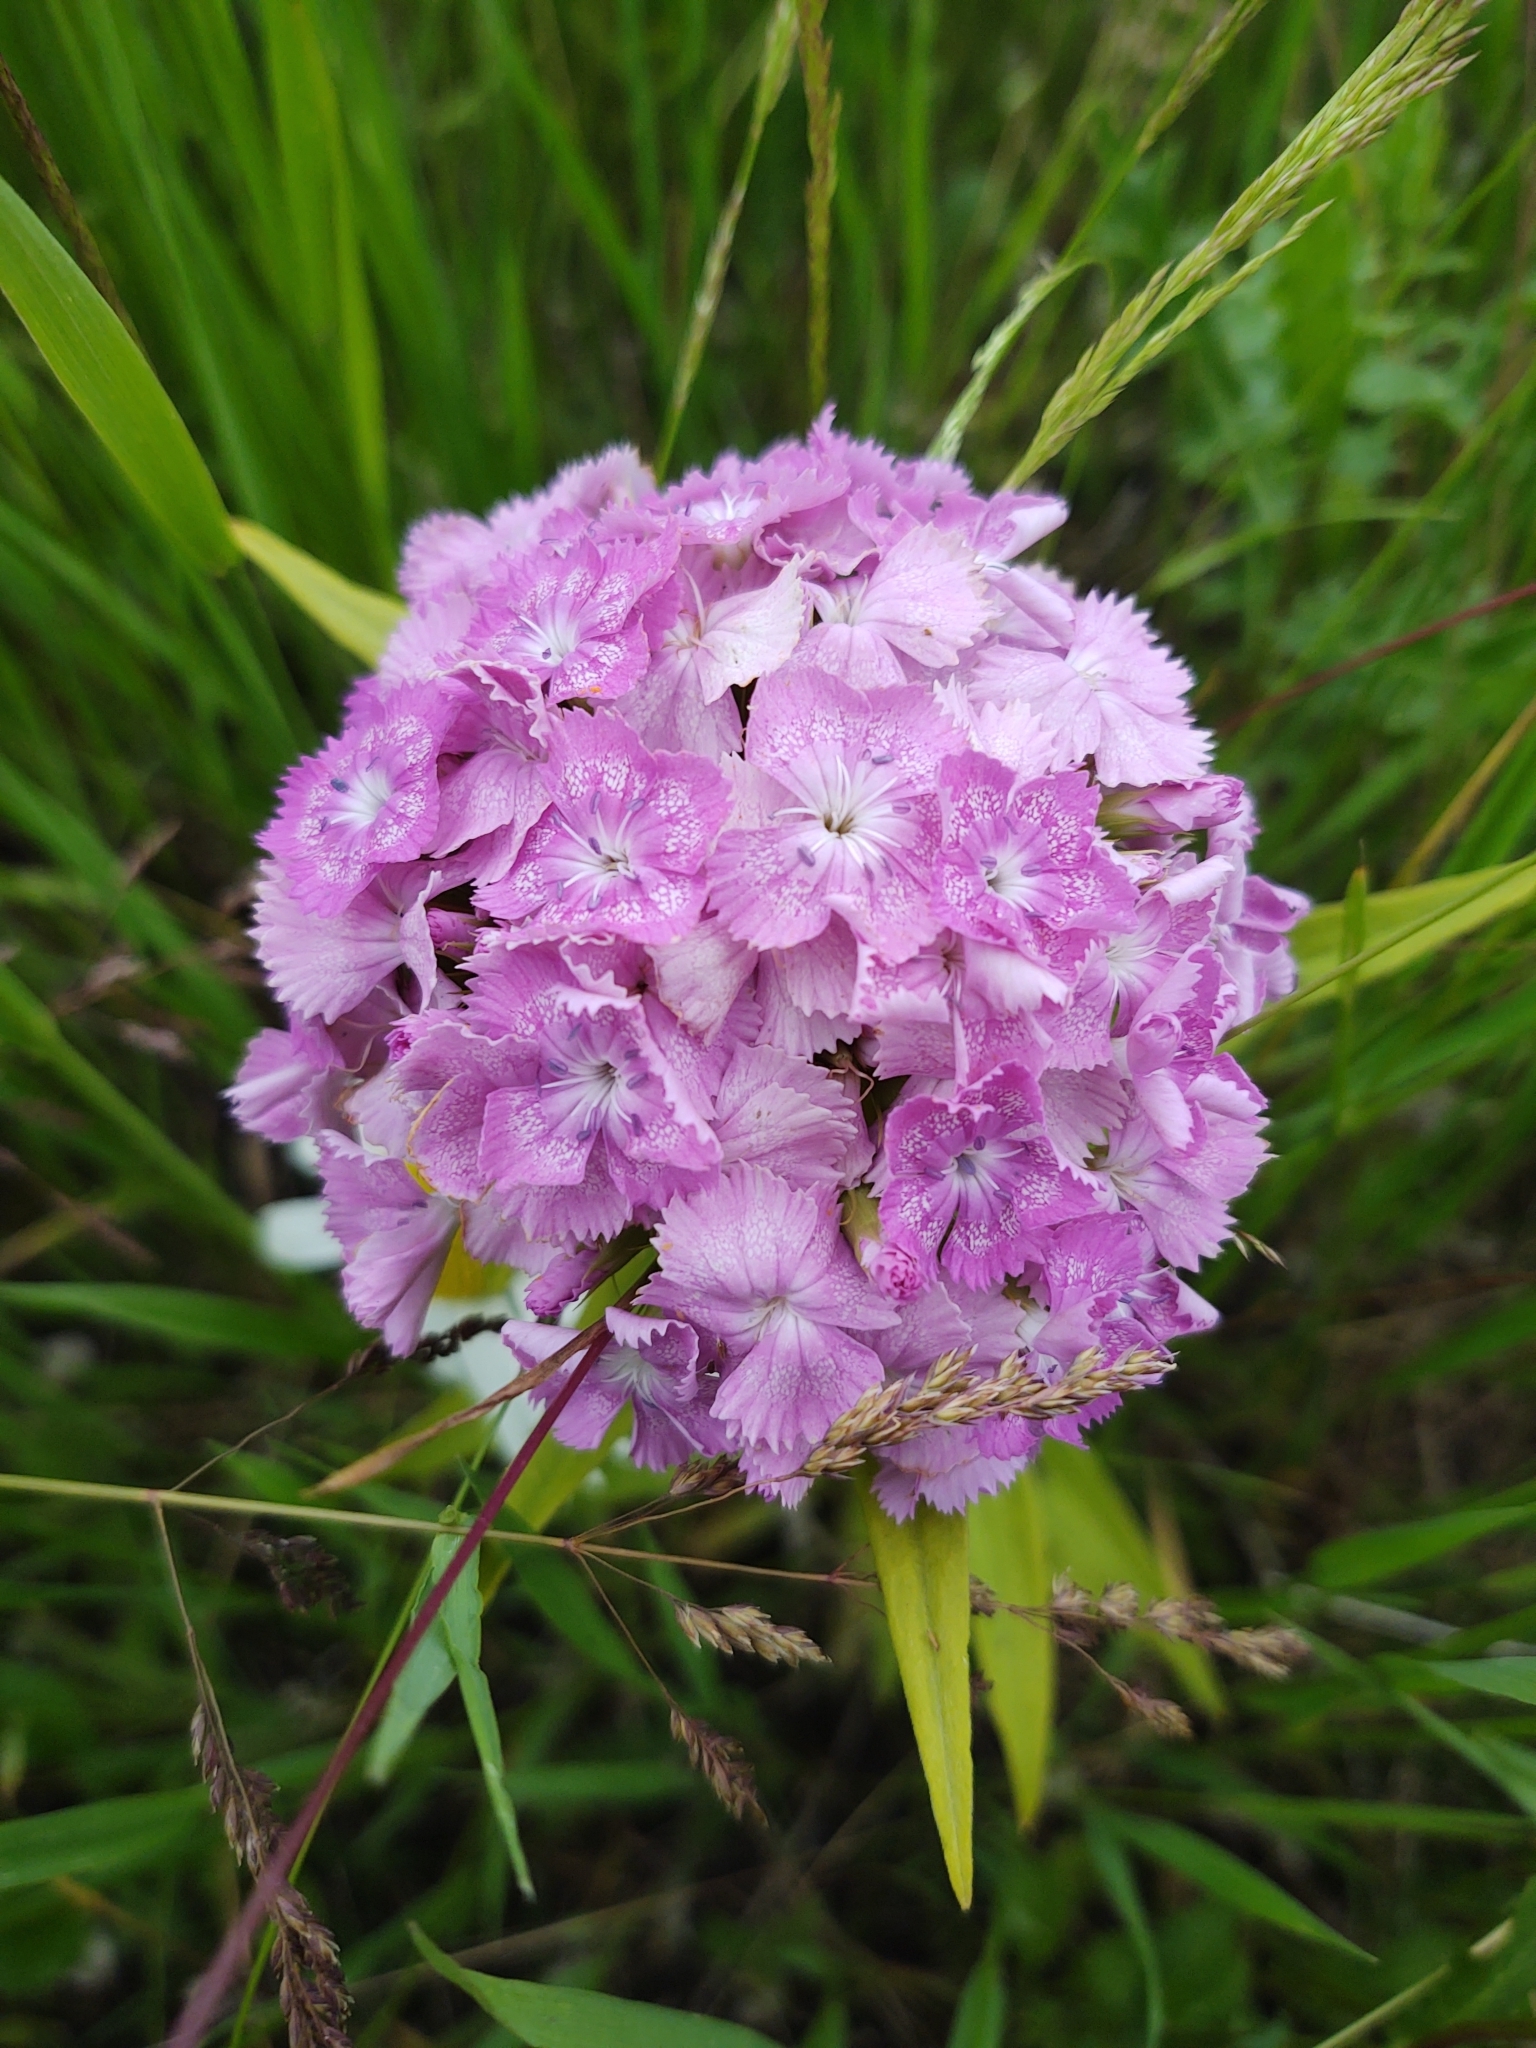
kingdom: Plantae
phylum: Tracheophyta
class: Magnoliopsida
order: Caryophyllales
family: Caryophyllaceae
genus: Dianthus
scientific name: Dianthus barbatus
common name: Sweet-william
